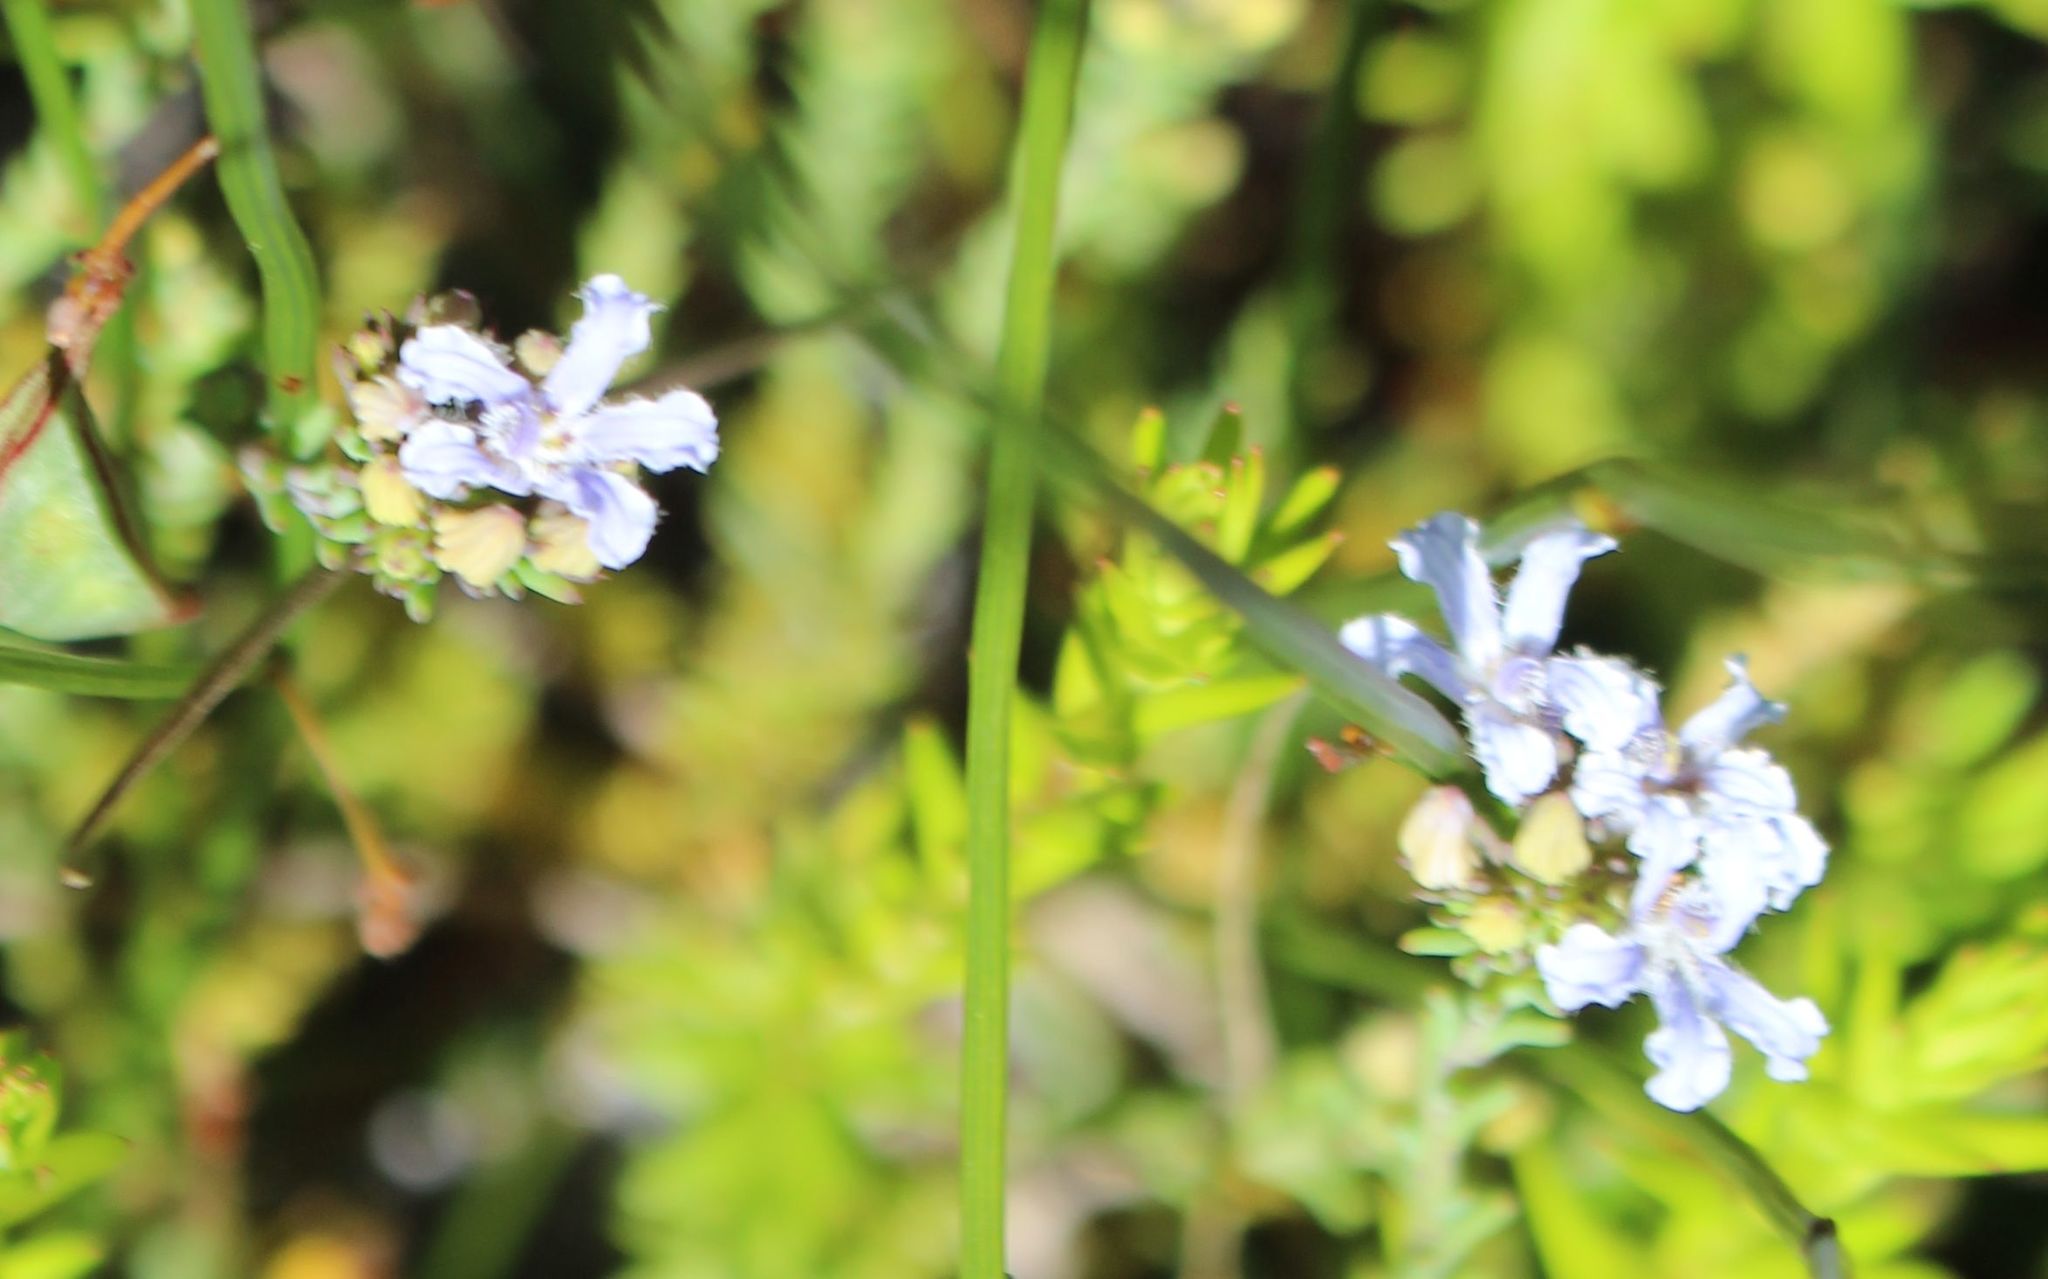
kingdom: Plantae
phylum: Tracheophyta
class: Magnoliopsida
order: Asterales
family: Goodeniaceae
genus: Lechenaultia
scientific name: Lechenaultia expansa
